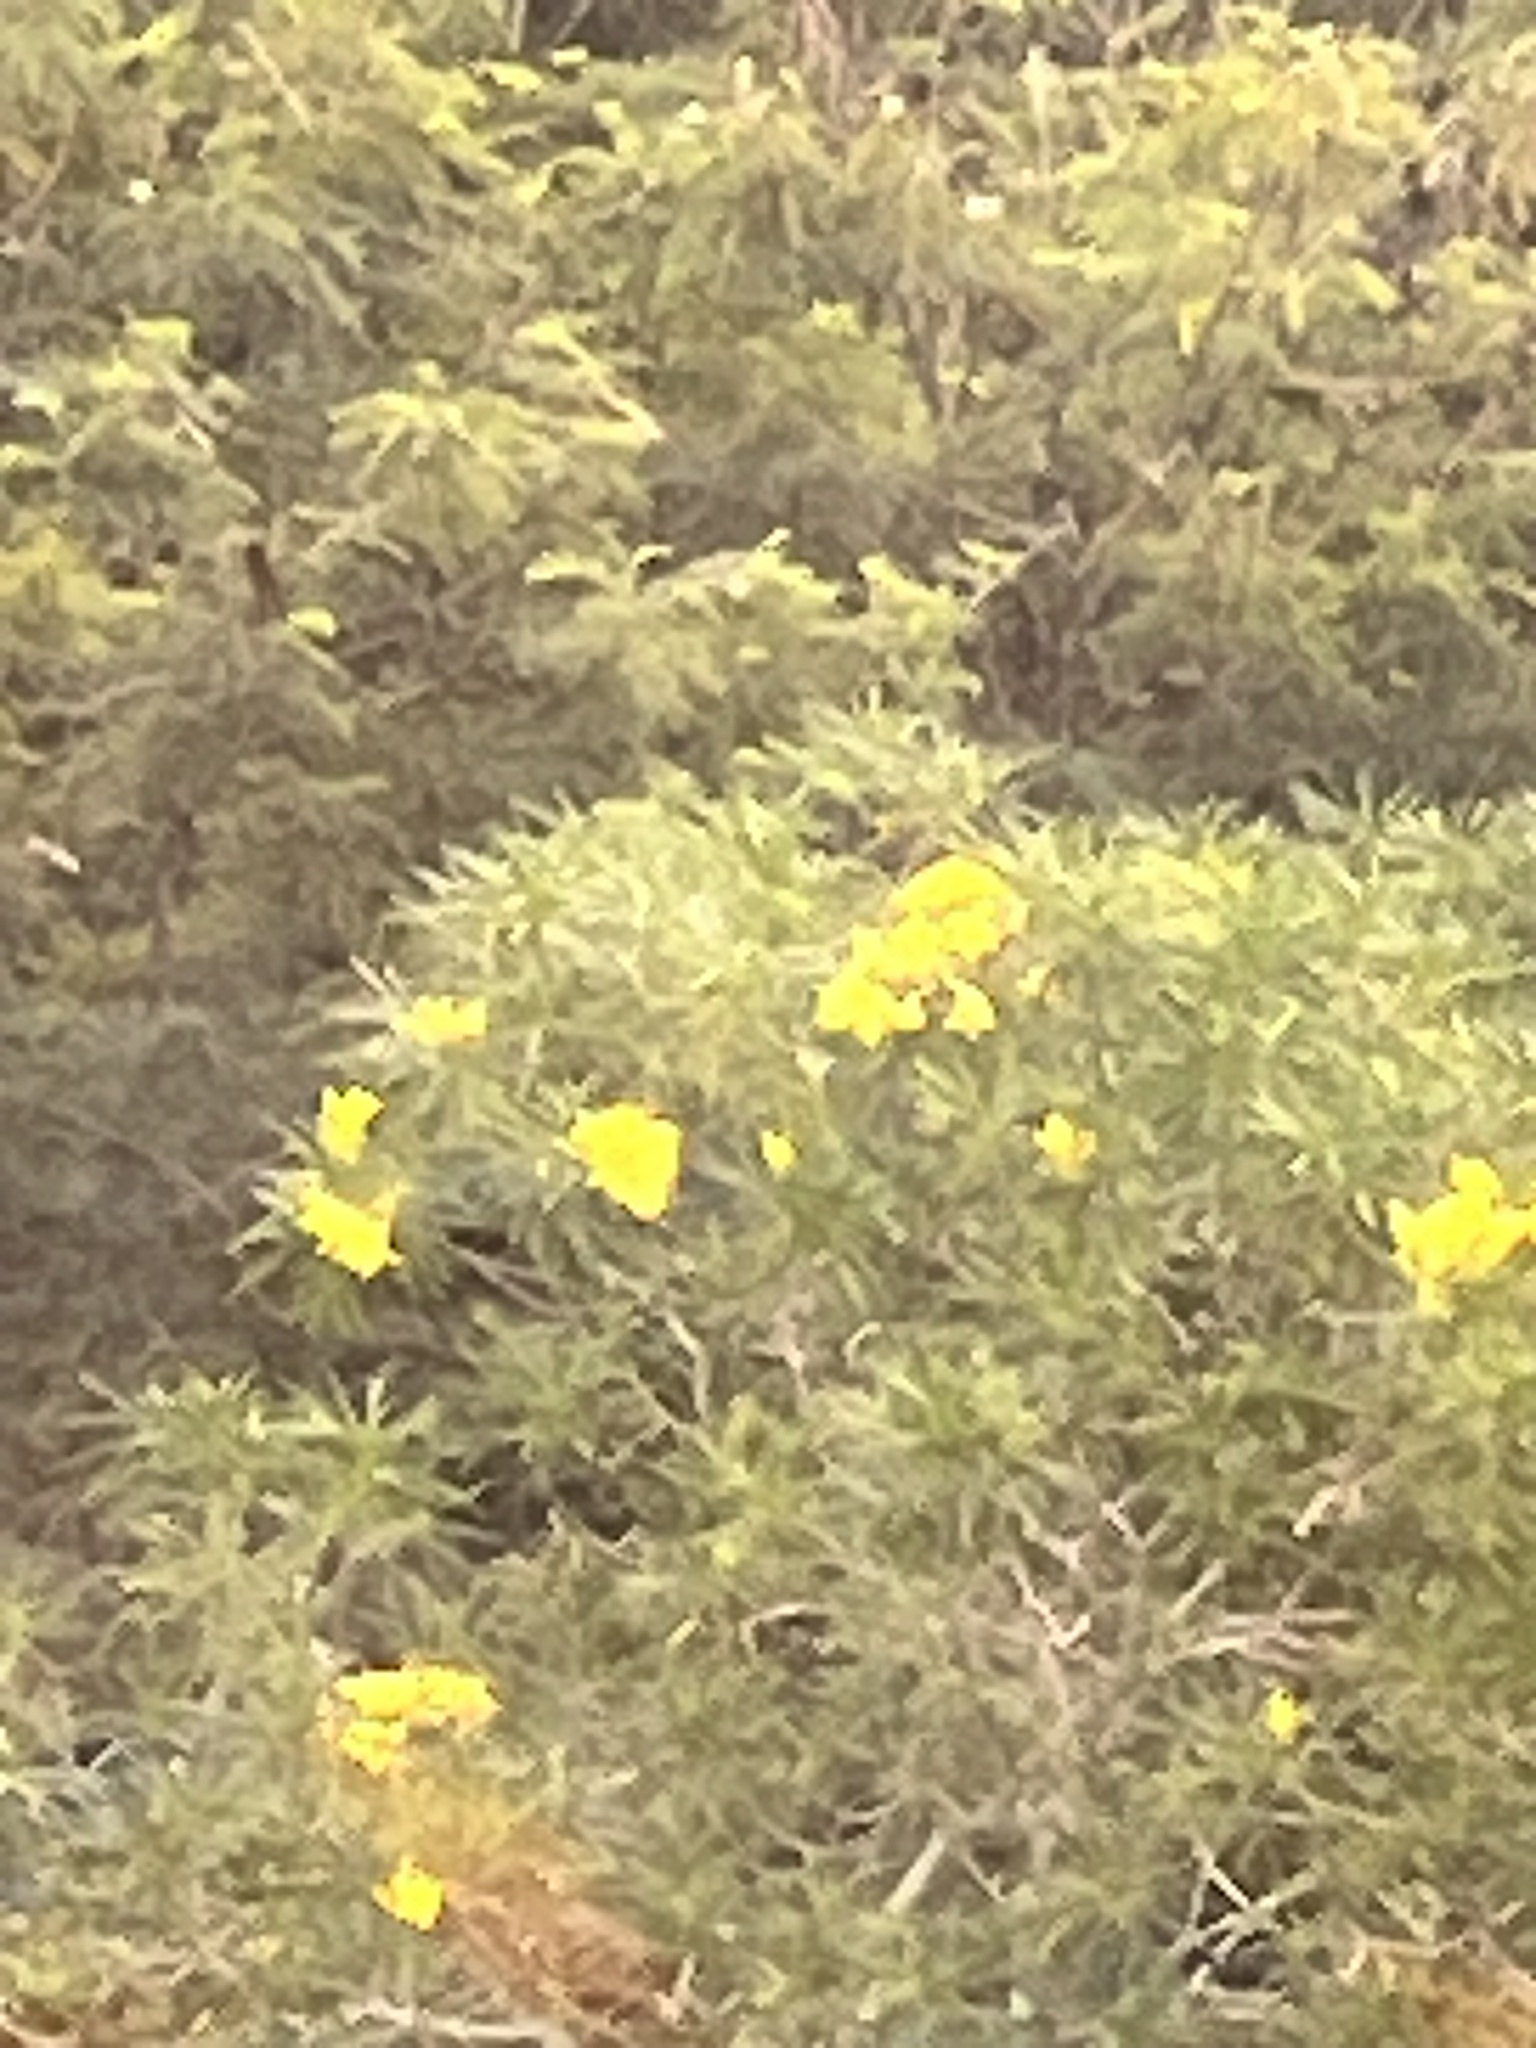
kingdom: Plantae
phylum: Tracheophyta
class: Magnoliopsida
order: Gentianales
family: Apocynaceae
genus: Cascabela
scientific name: Cascabela thevetia
